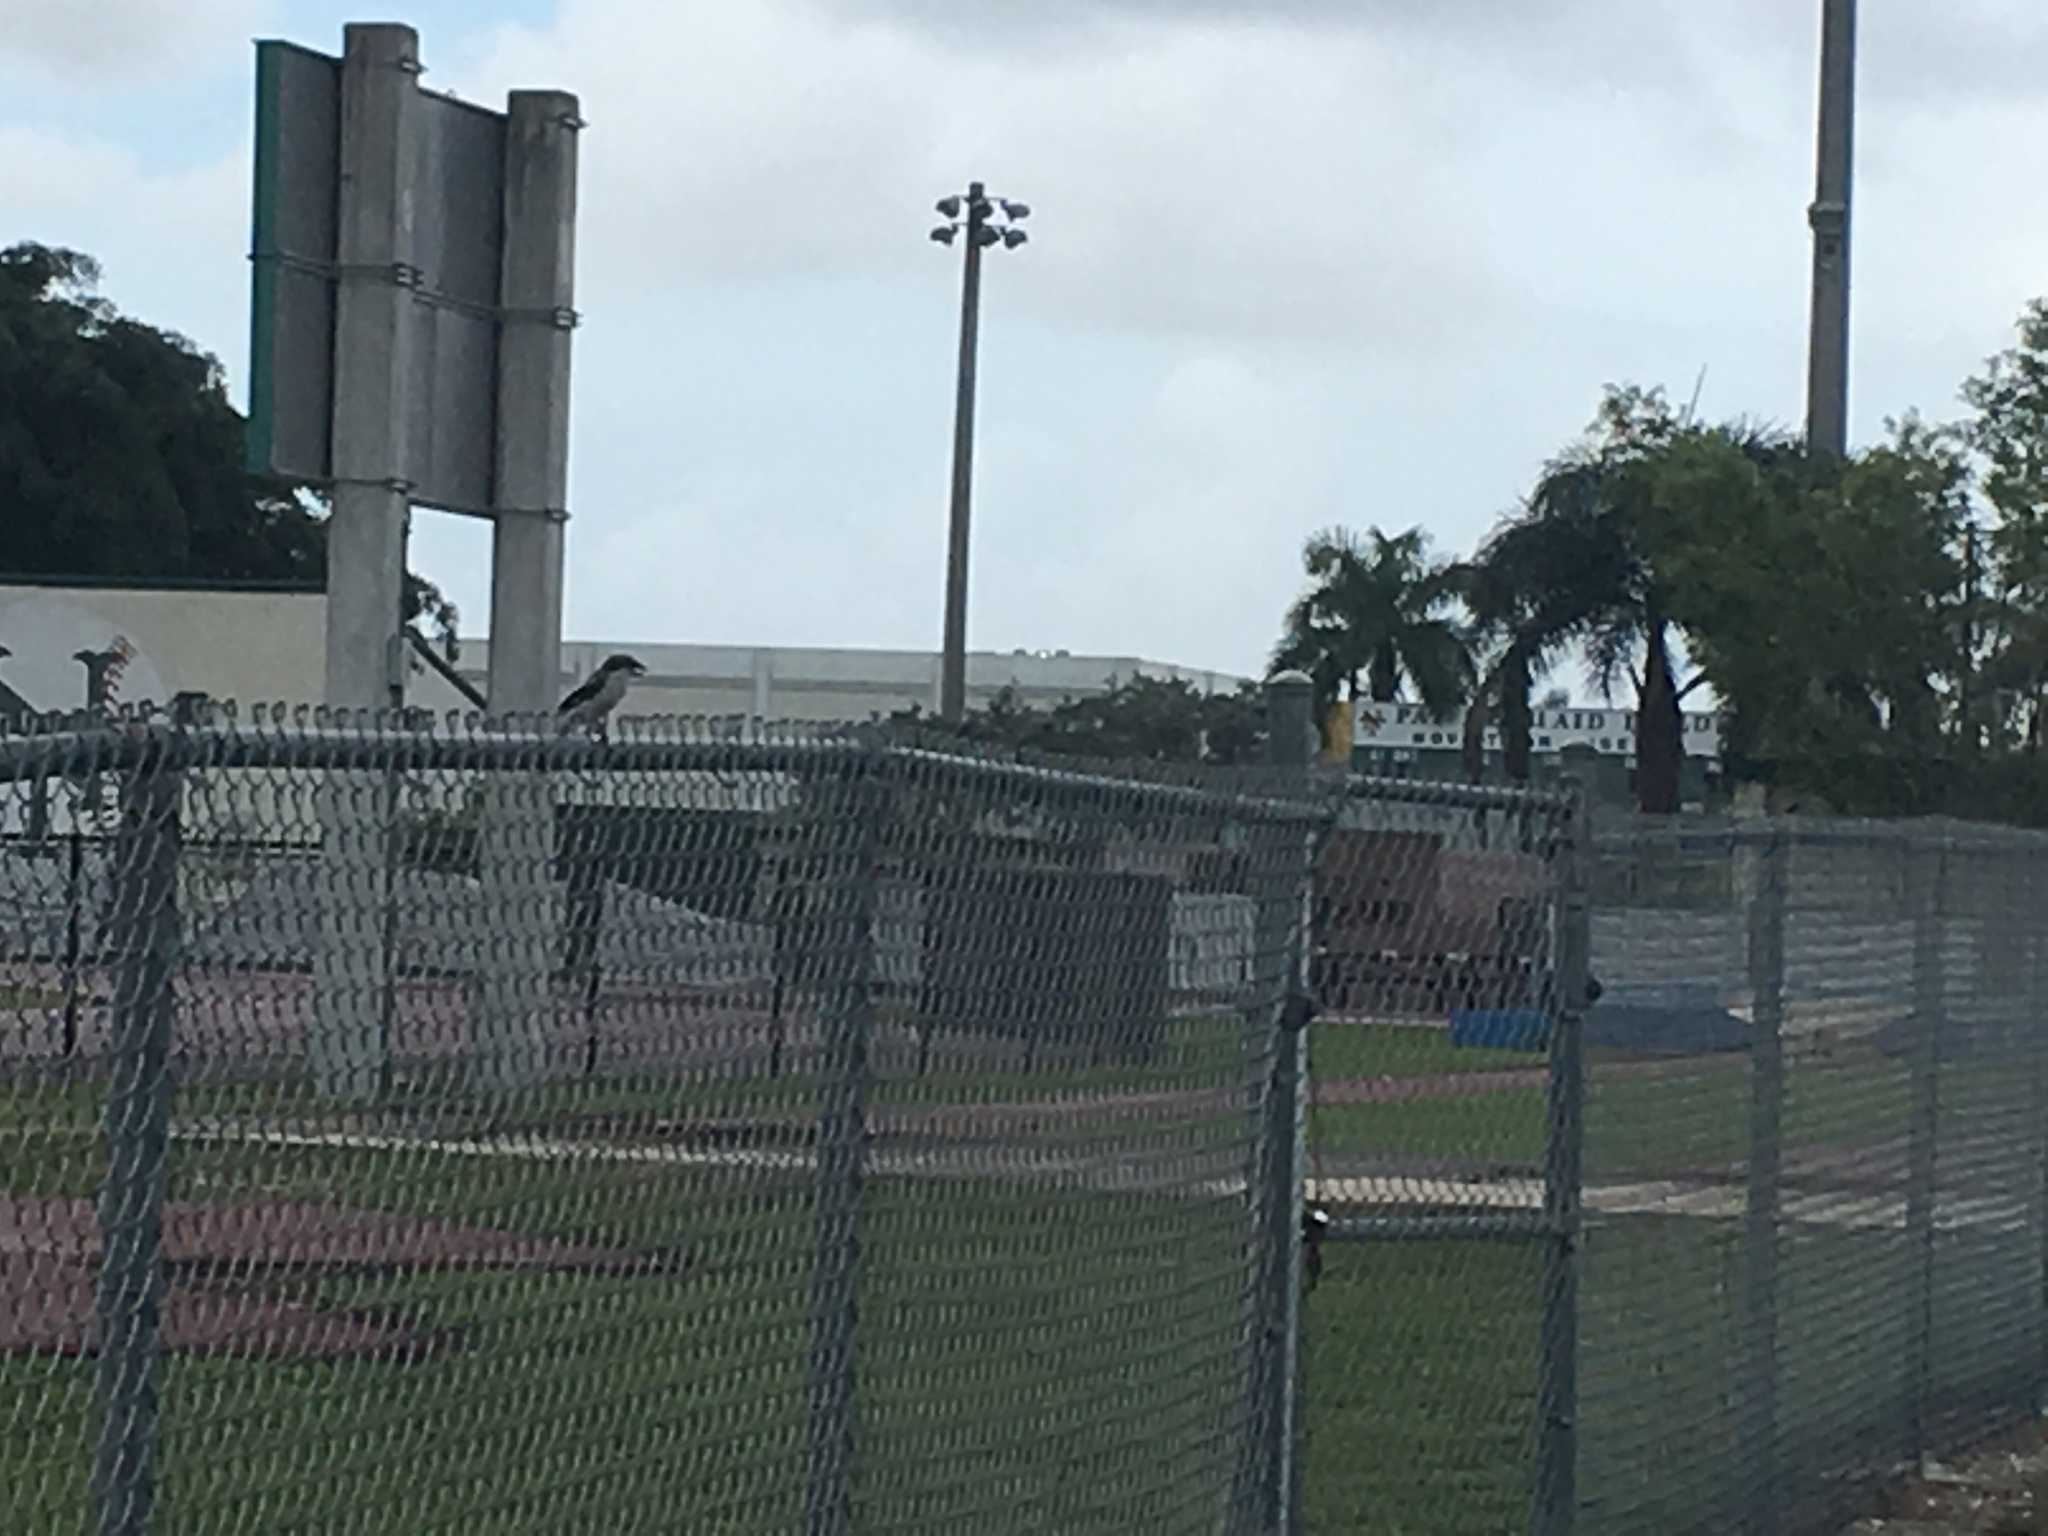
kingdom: Animalia
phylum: Chordata
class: Aves
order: Passeriformes
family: Laniidae
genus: Lanius
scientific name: Lanius ludovicianus
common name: Loggerhead shrike
